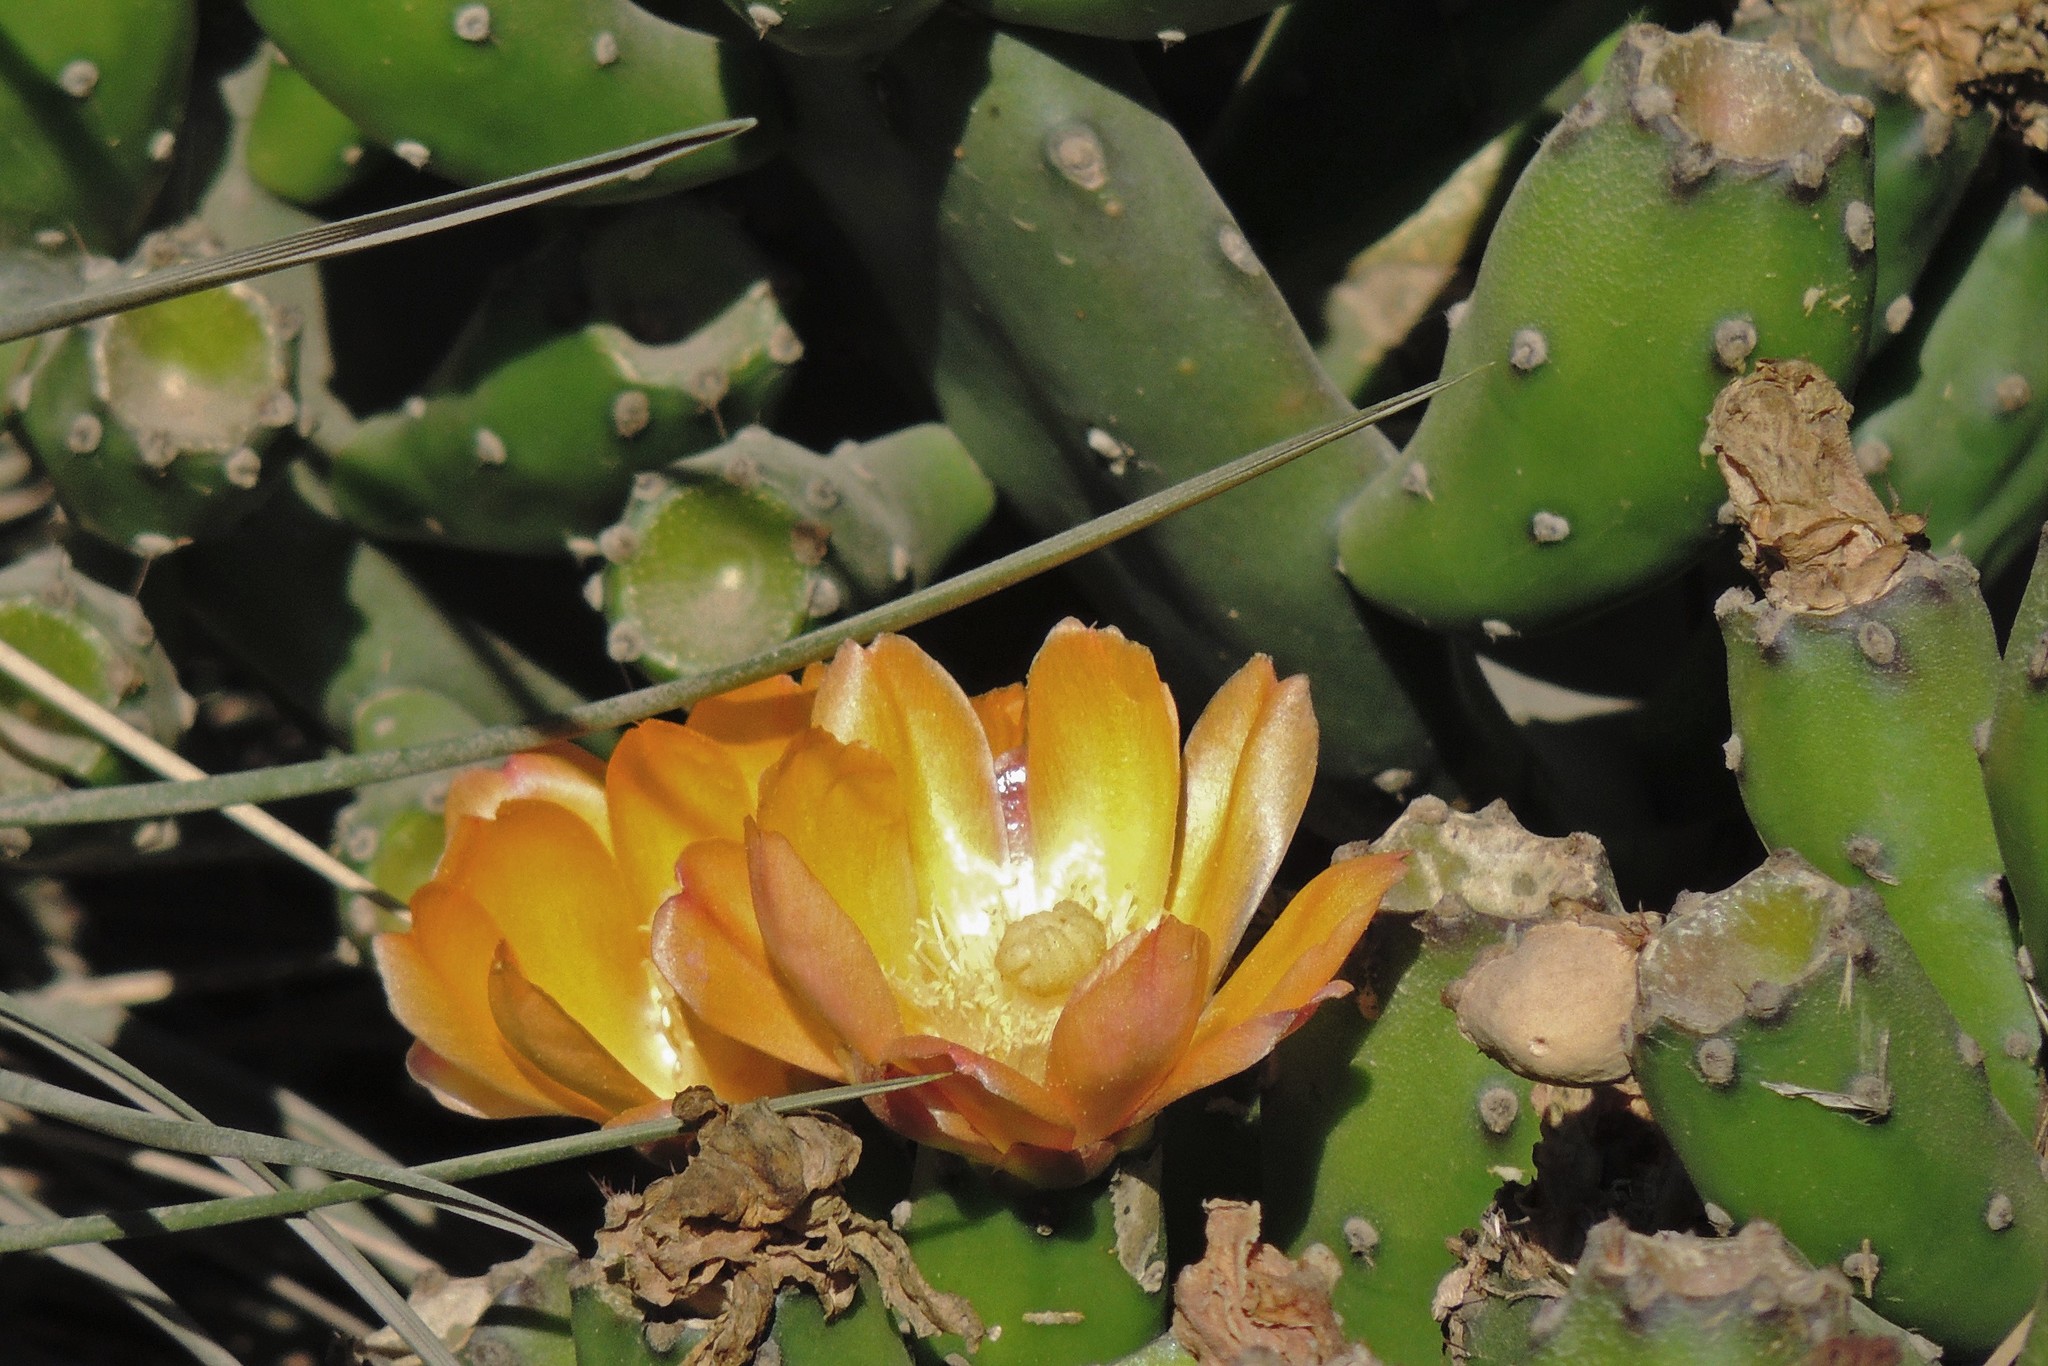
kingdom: Plantae
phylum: Tracheophyta
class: Magnoliopsida
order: Caryophyllales
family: Cactaceae
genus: Opuntia
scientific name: Opuntia elata
